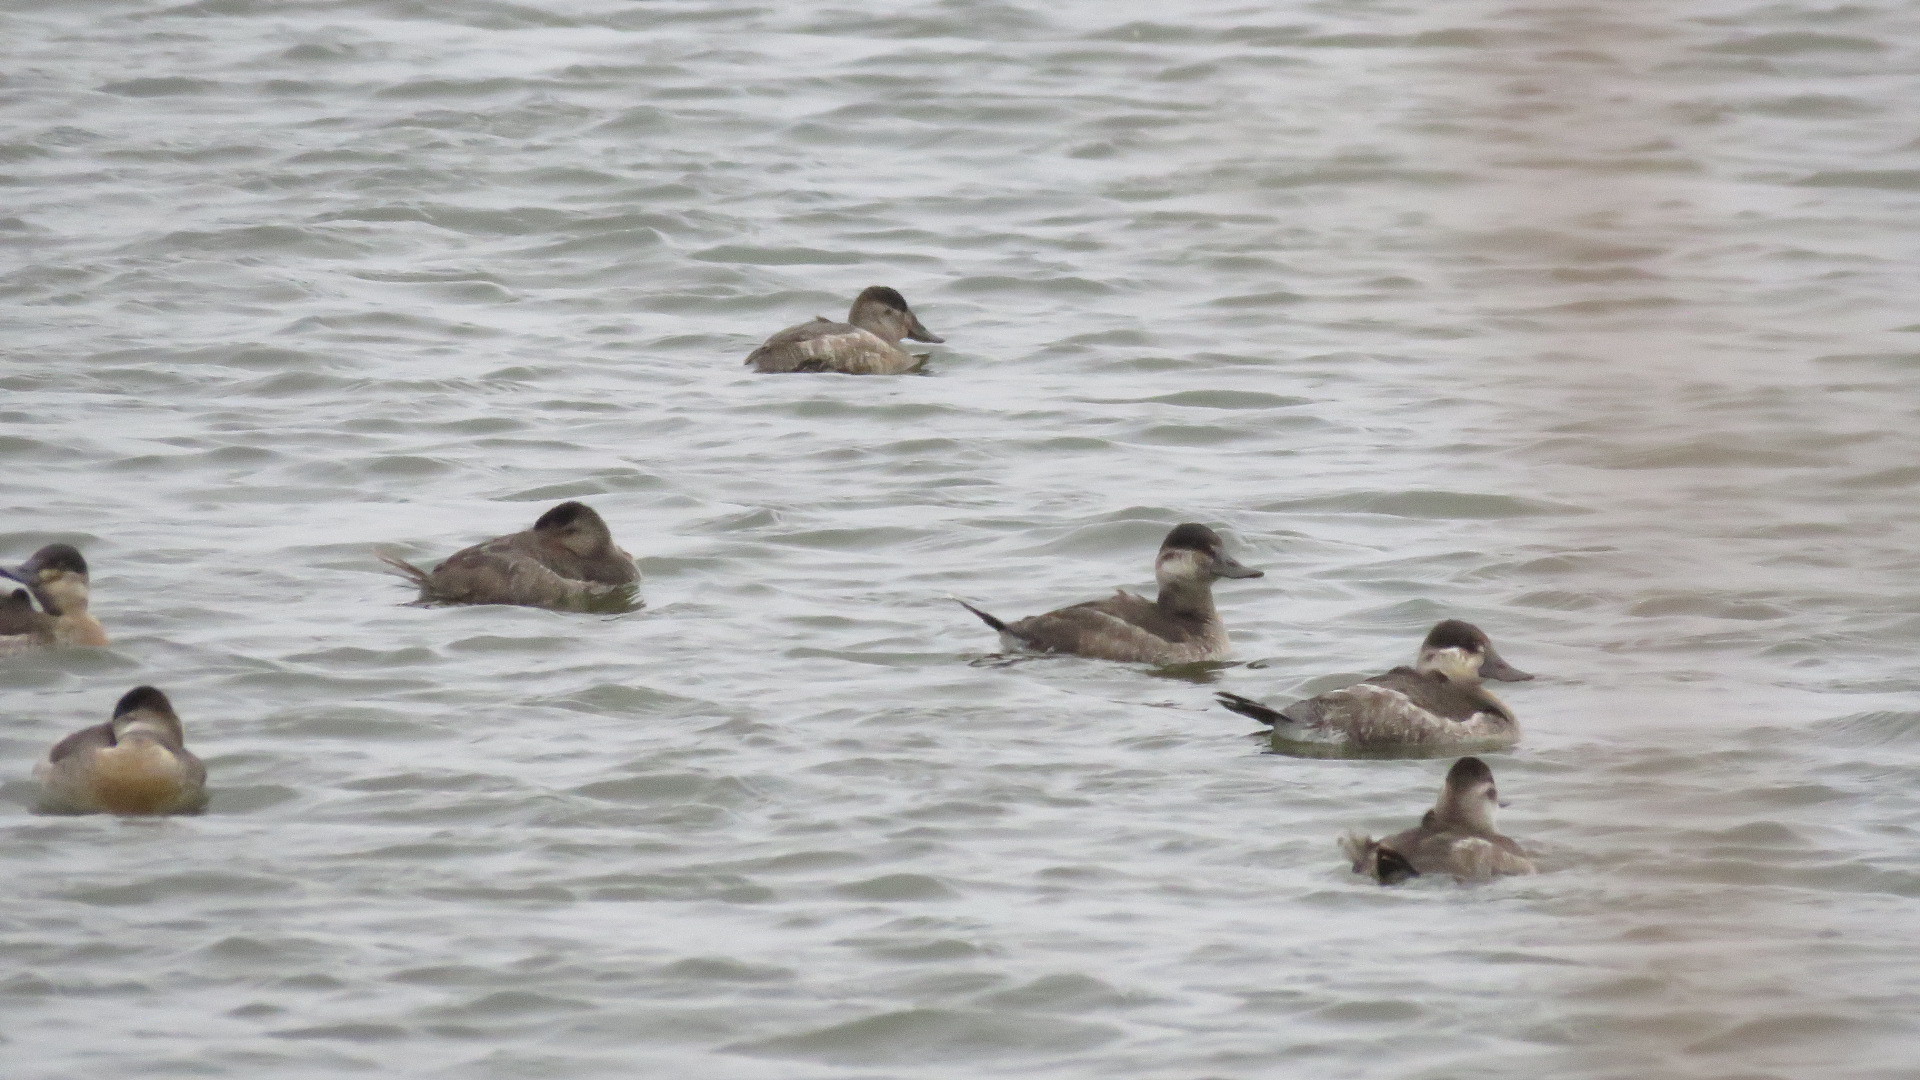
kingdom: Animalia
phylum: Chordata
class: Aves
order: Anseriformes
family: Anatidae
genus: Oxyura
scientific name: Oxyura jamaicensis
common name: Ruddy duck
